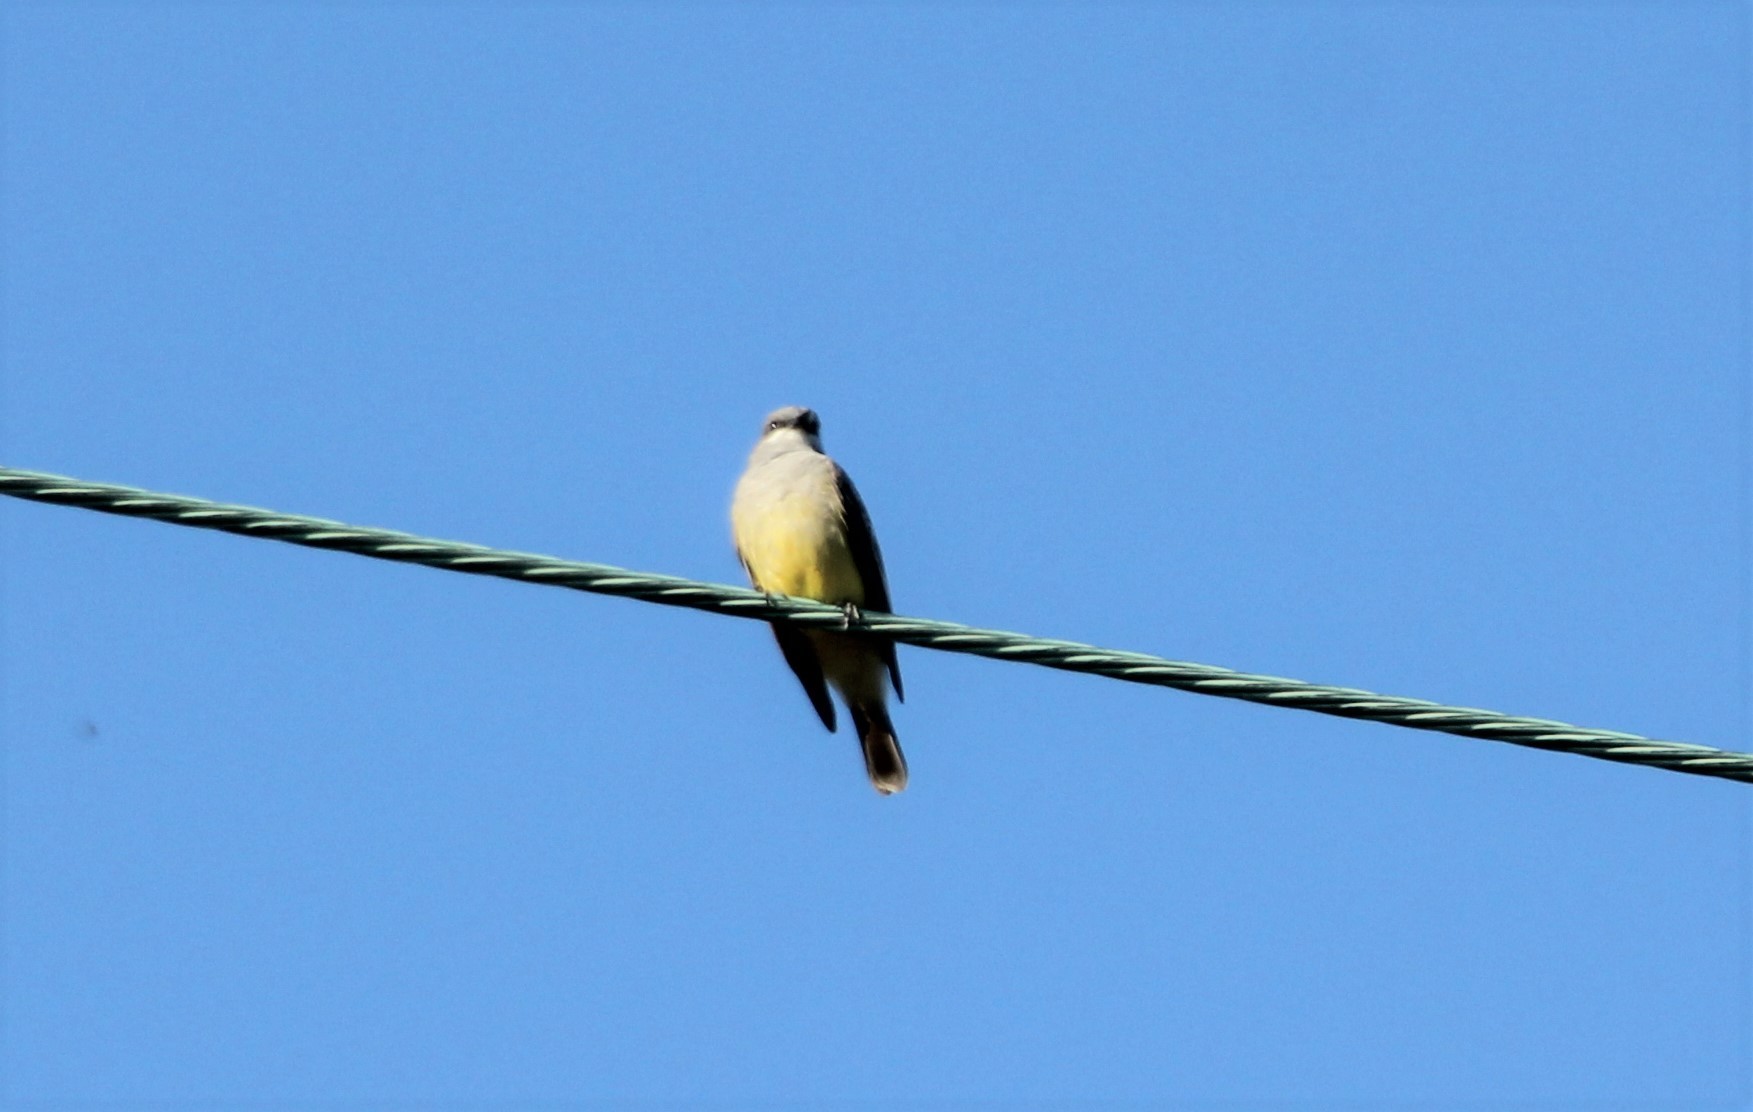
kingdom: Animalia
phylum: Chordata
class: Aves
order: Passeriformes
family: Tyrannidae
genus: Tyrannus
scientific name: Tyrannus vociferans
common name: Cassin's kingbird
